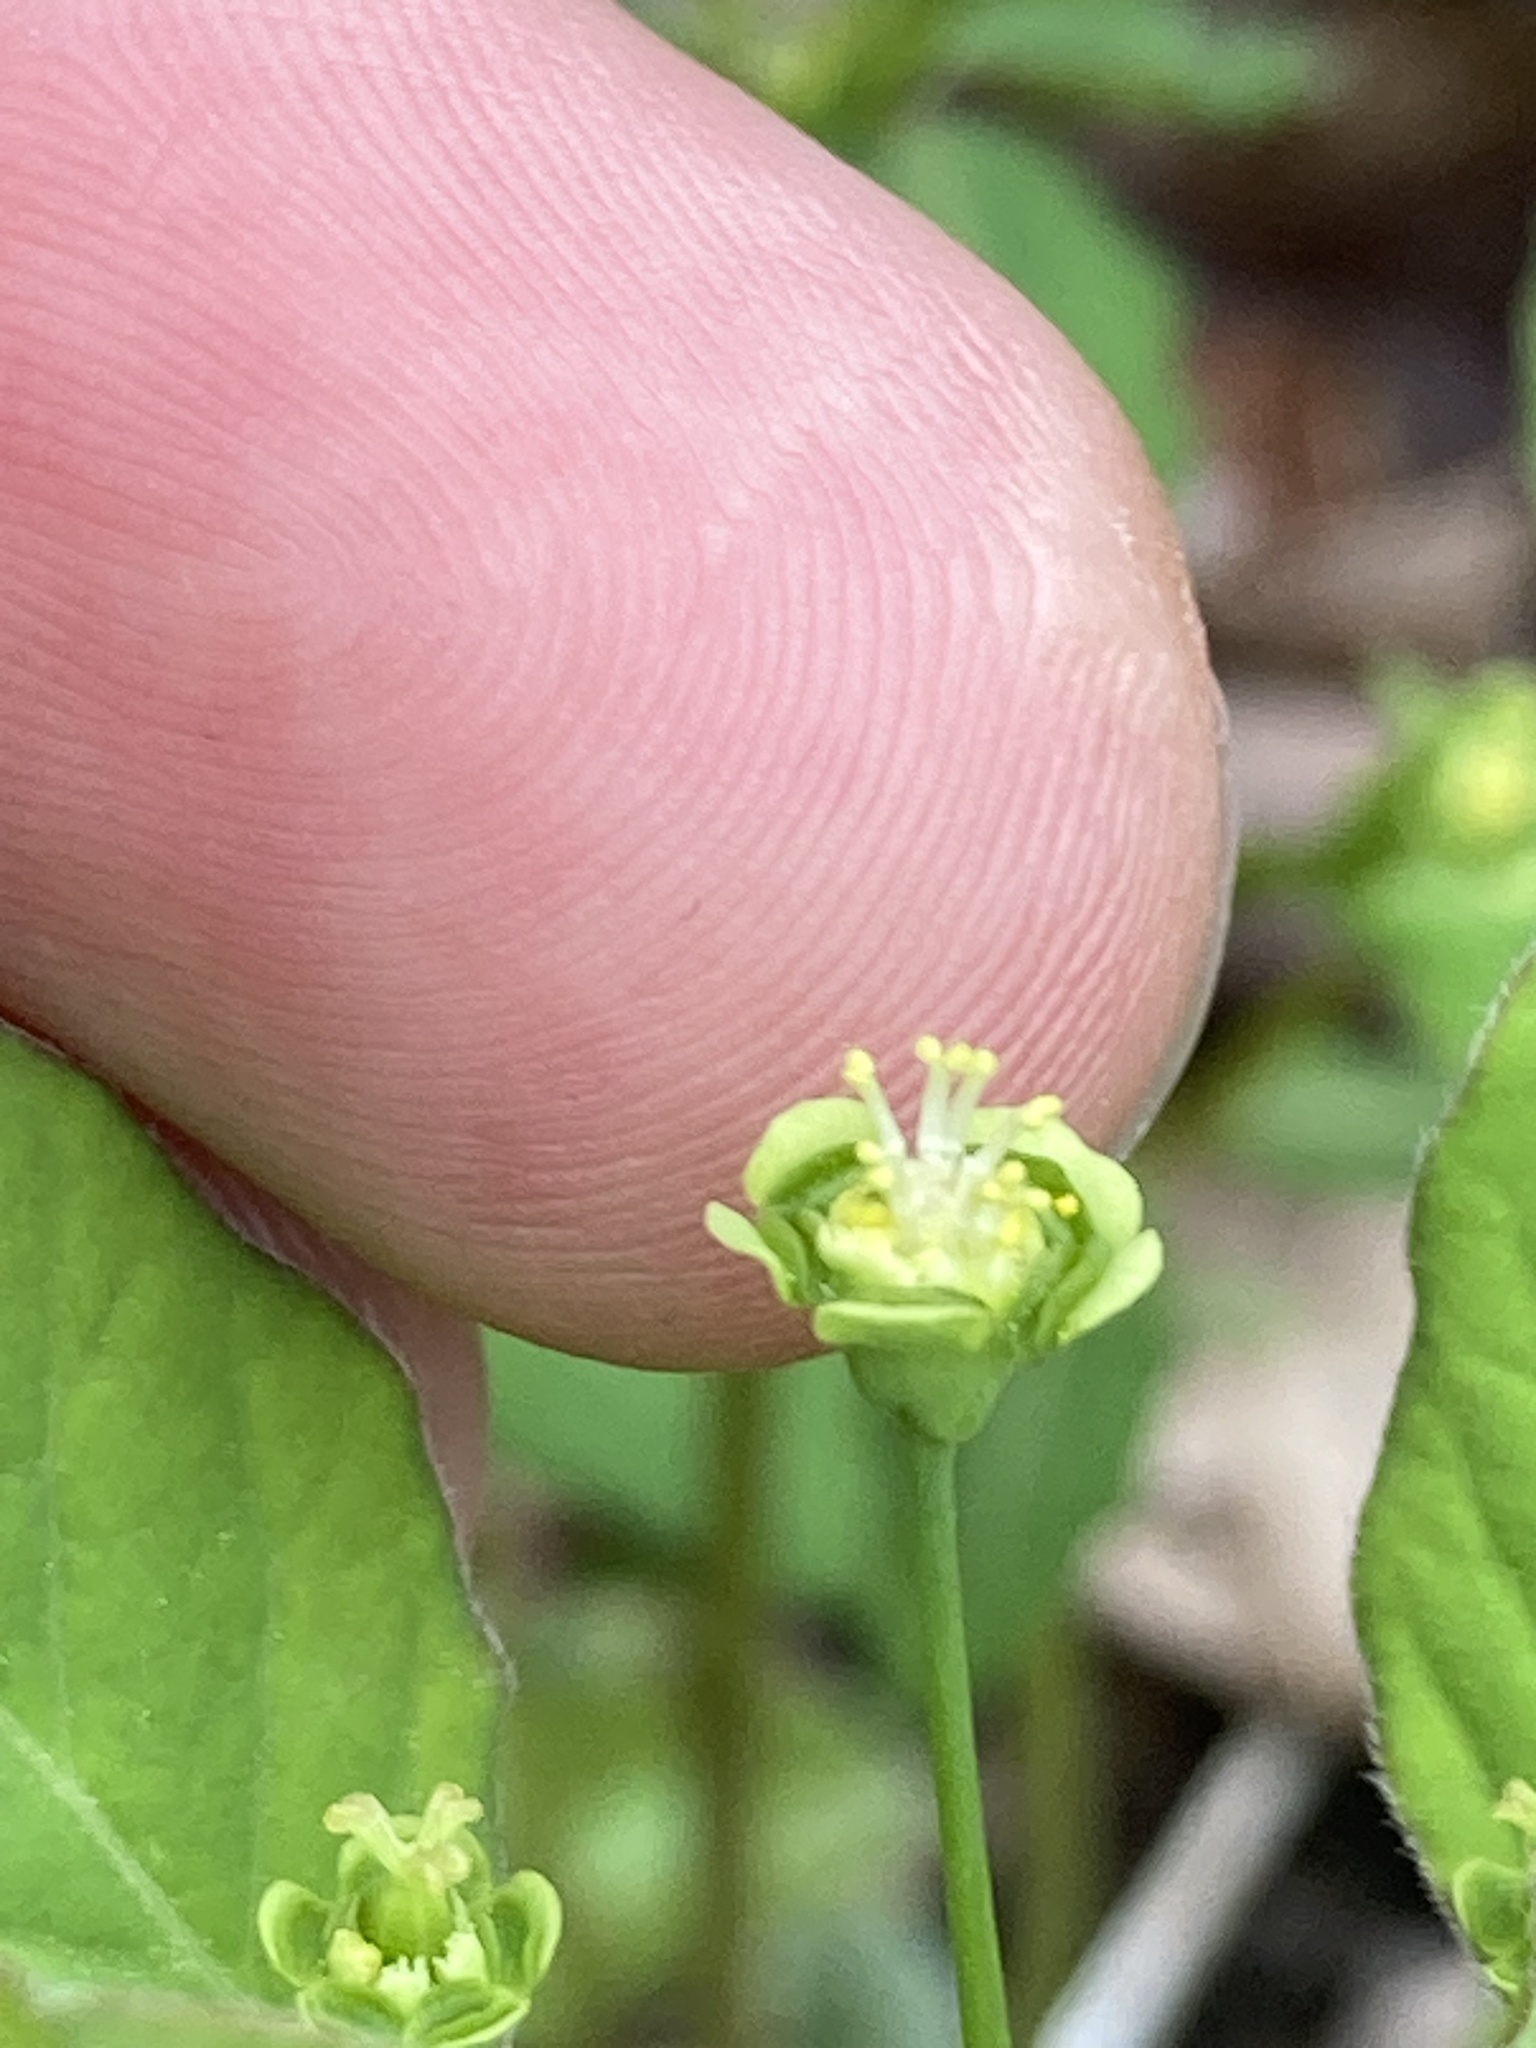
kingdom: Plantae
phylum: Tracheophyta
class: Magnoliopsida
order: Malpighiales
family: Euphorbiaceae
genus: Euphorbia
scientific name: Euphorbia mercurialina
